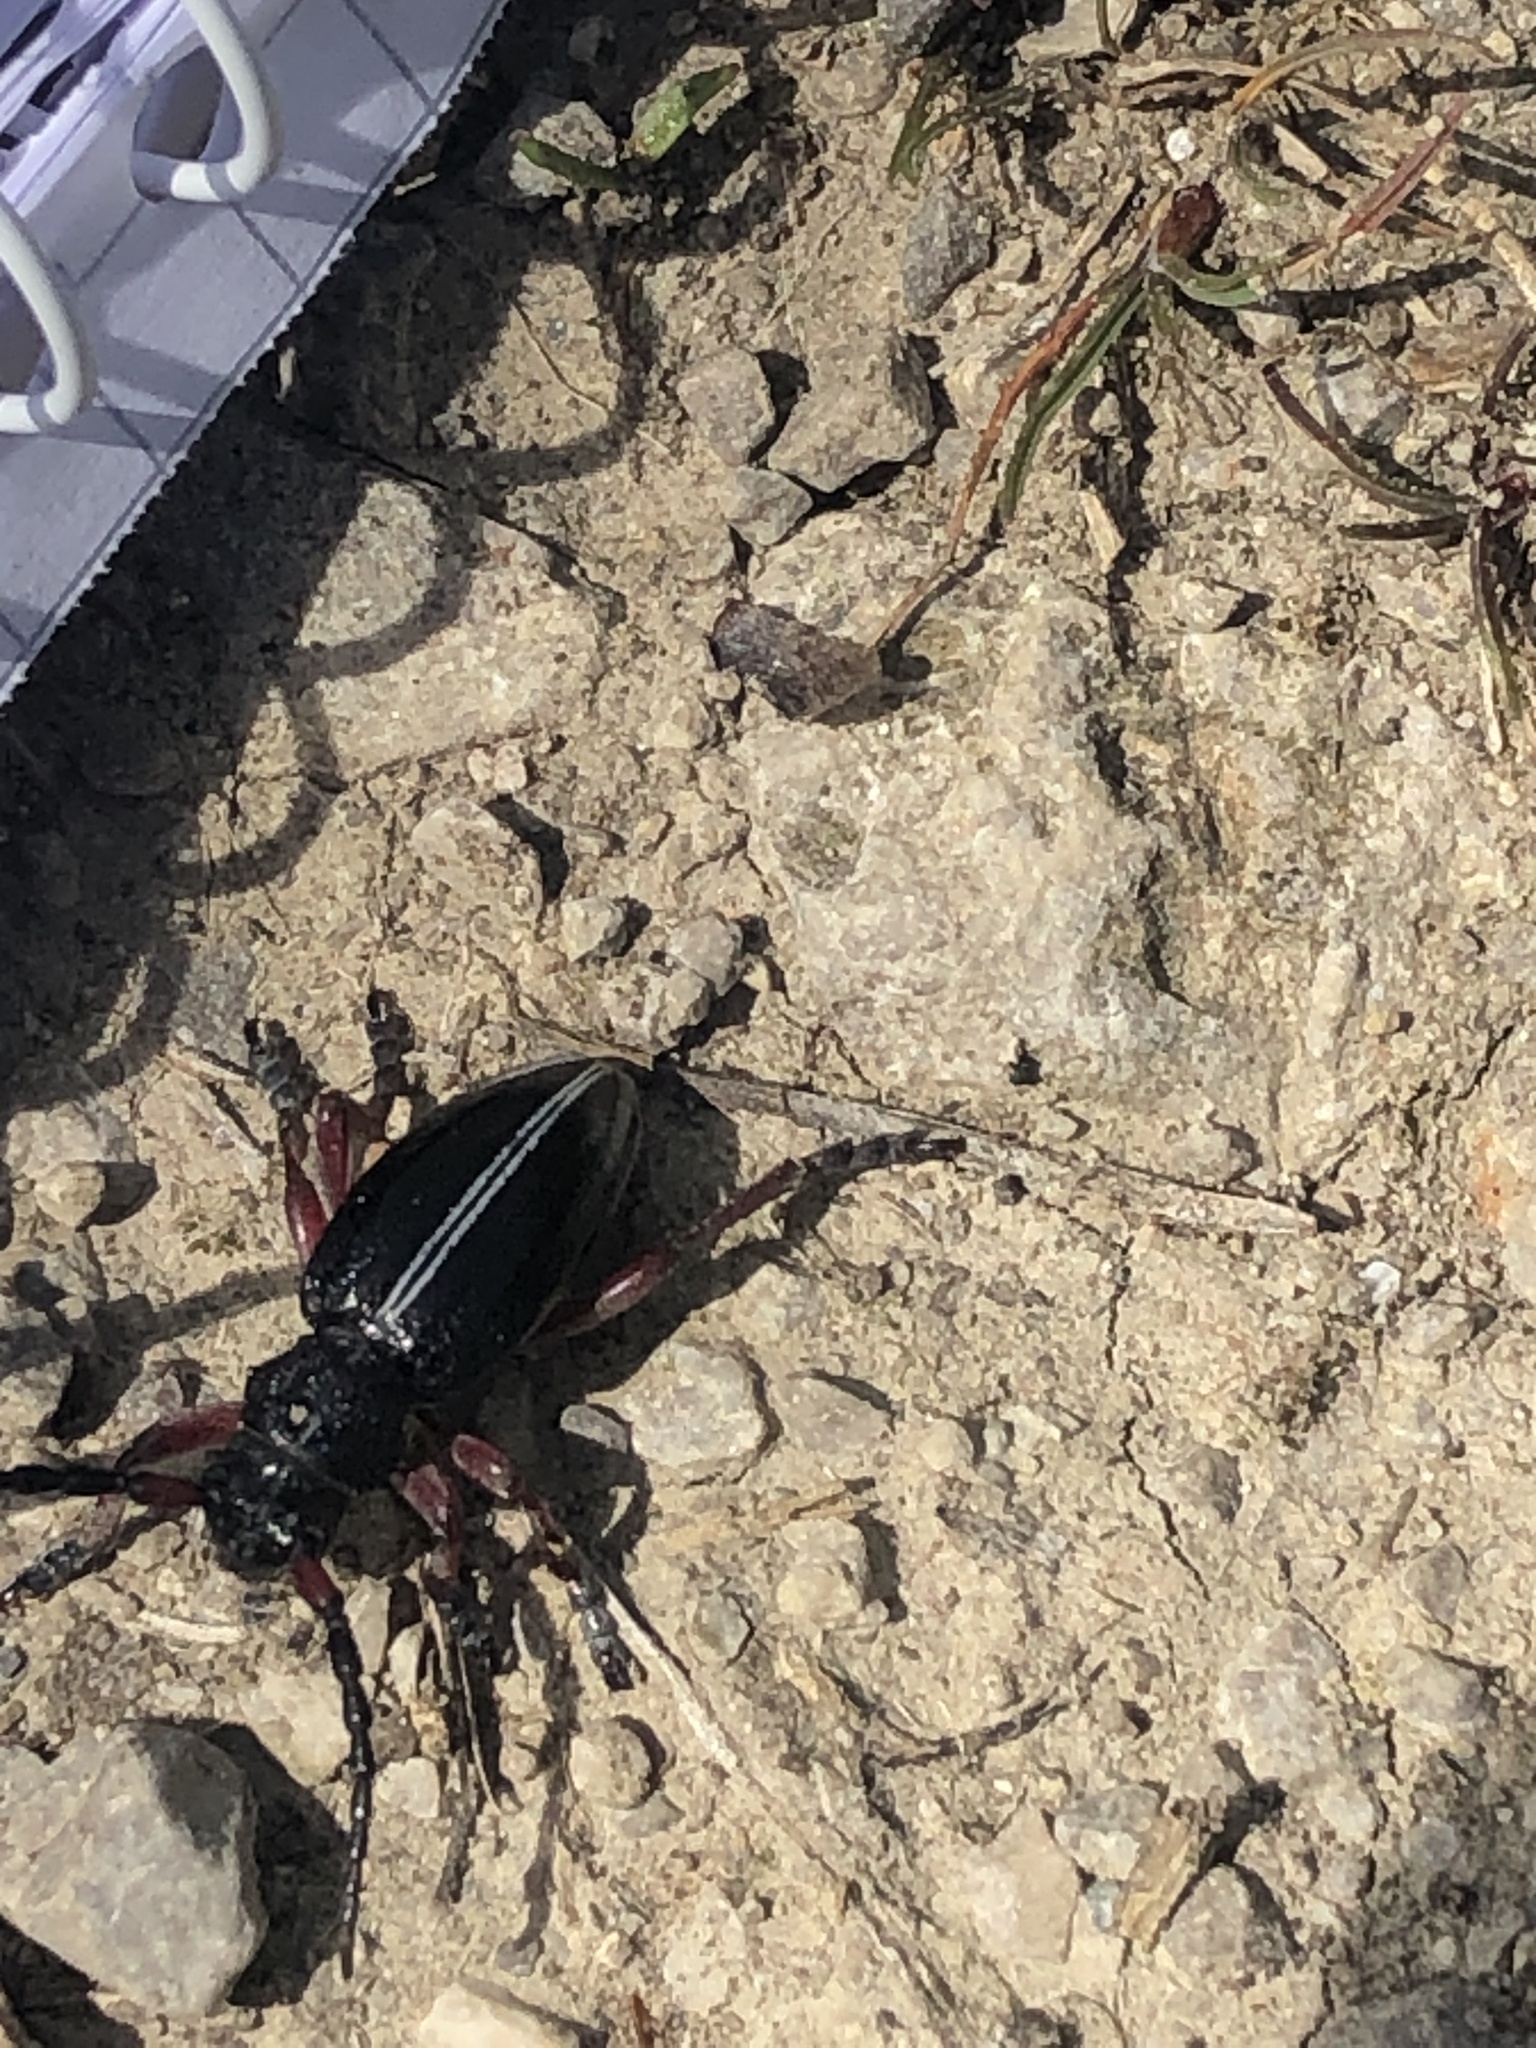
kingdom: Animalia
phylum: Arthropoda
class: Insecta
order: Coleoptera
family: Cerambycidae
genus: Dorcadion
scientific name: Dorcadion pedestre
